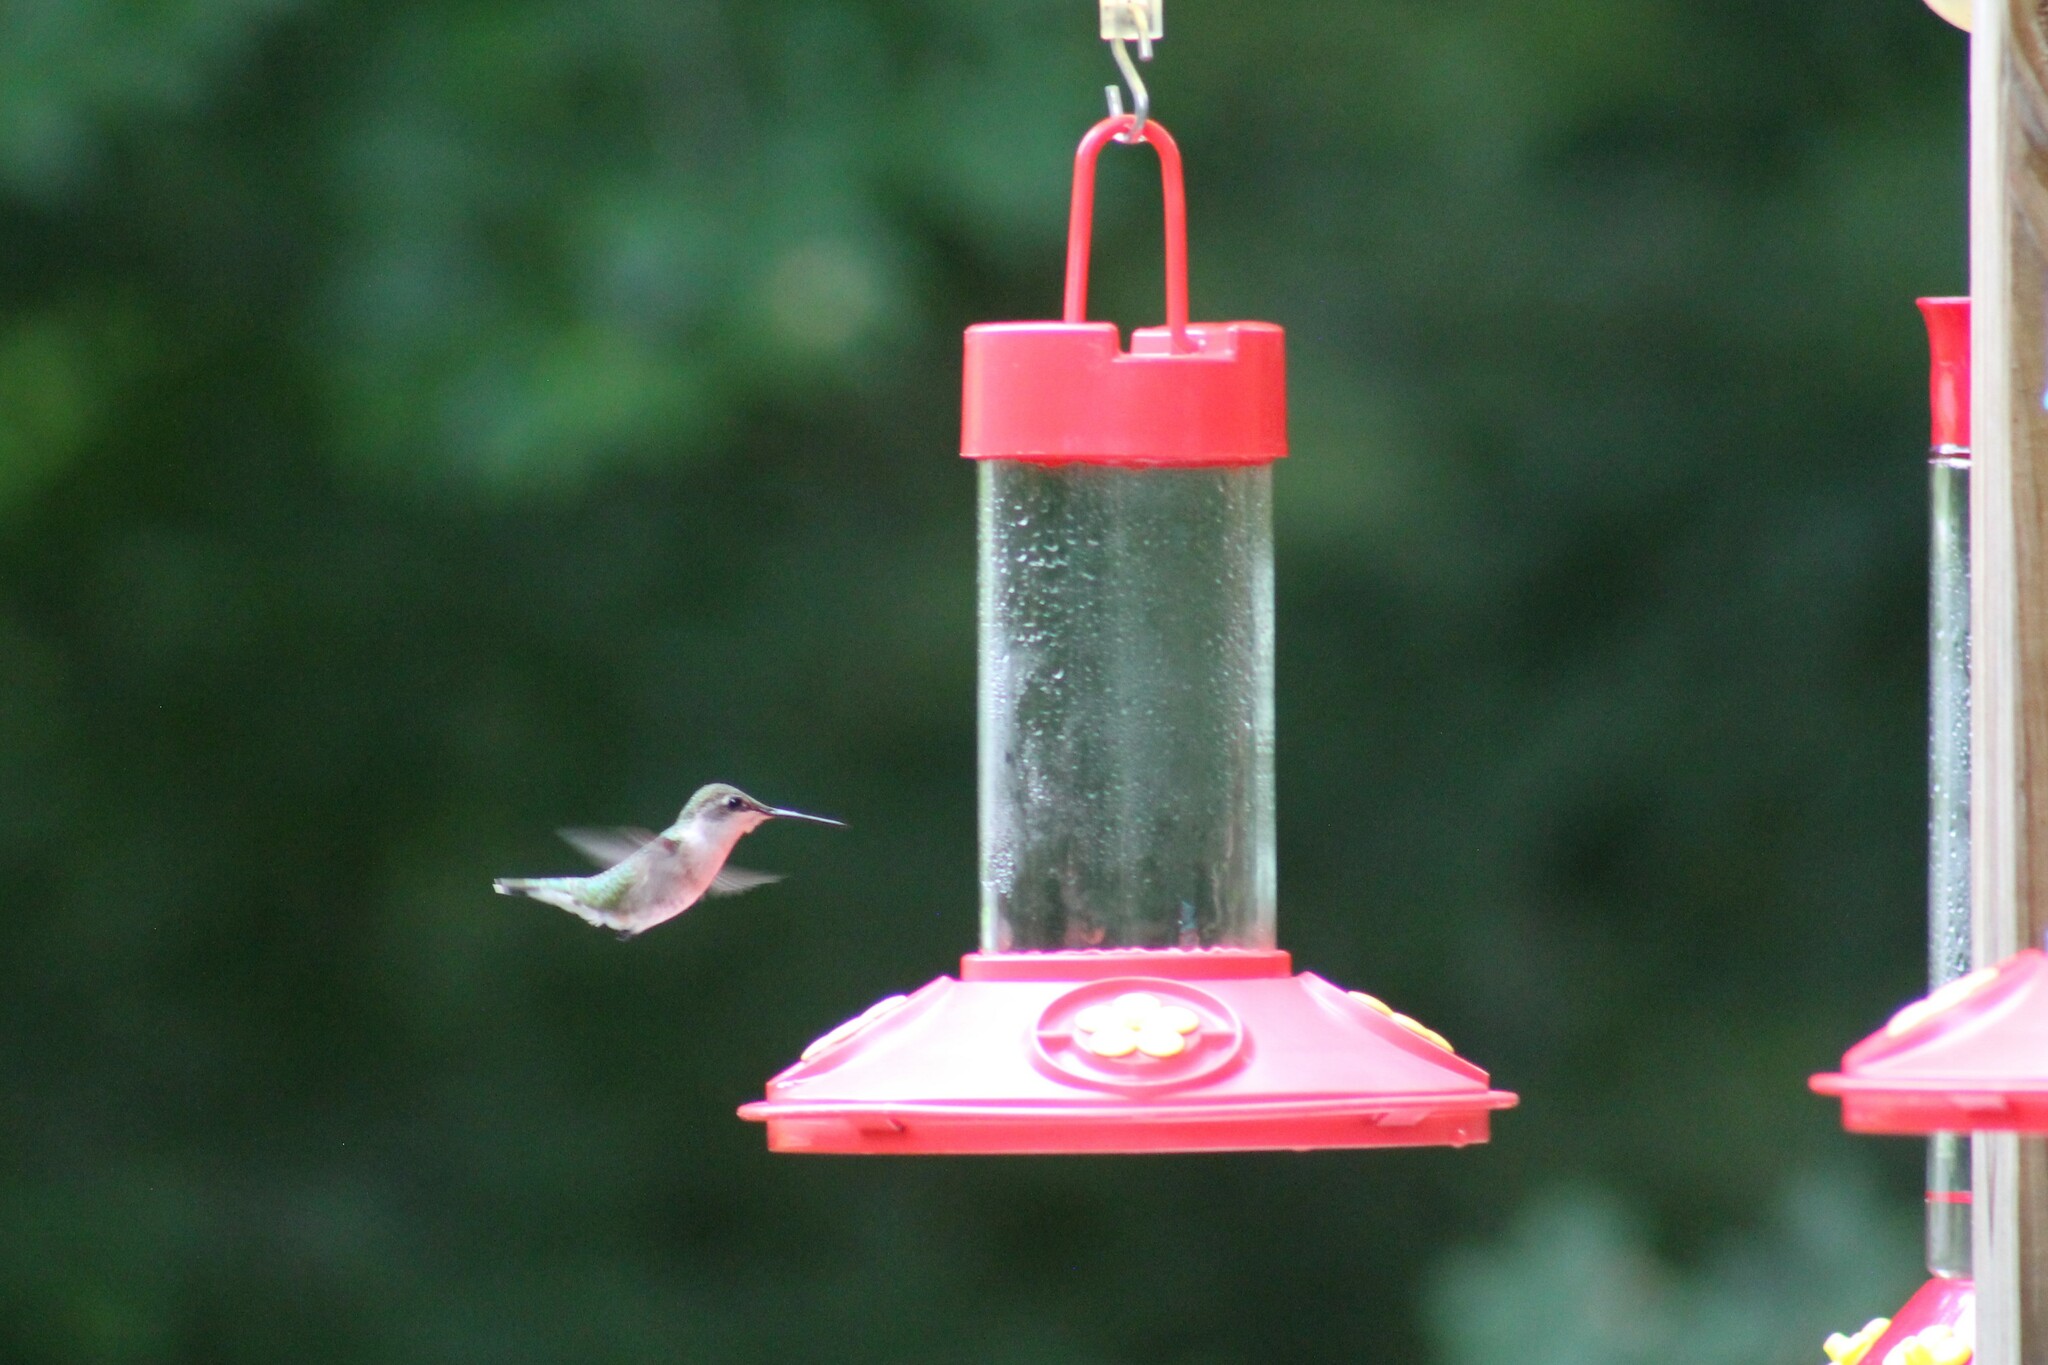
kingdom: Animalia
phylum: Chordata
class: Aves
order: Apodiformes
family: Trochilidae
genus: Archilochus
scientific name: Archilochus colubris
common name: Ruby-throated hummingbird
